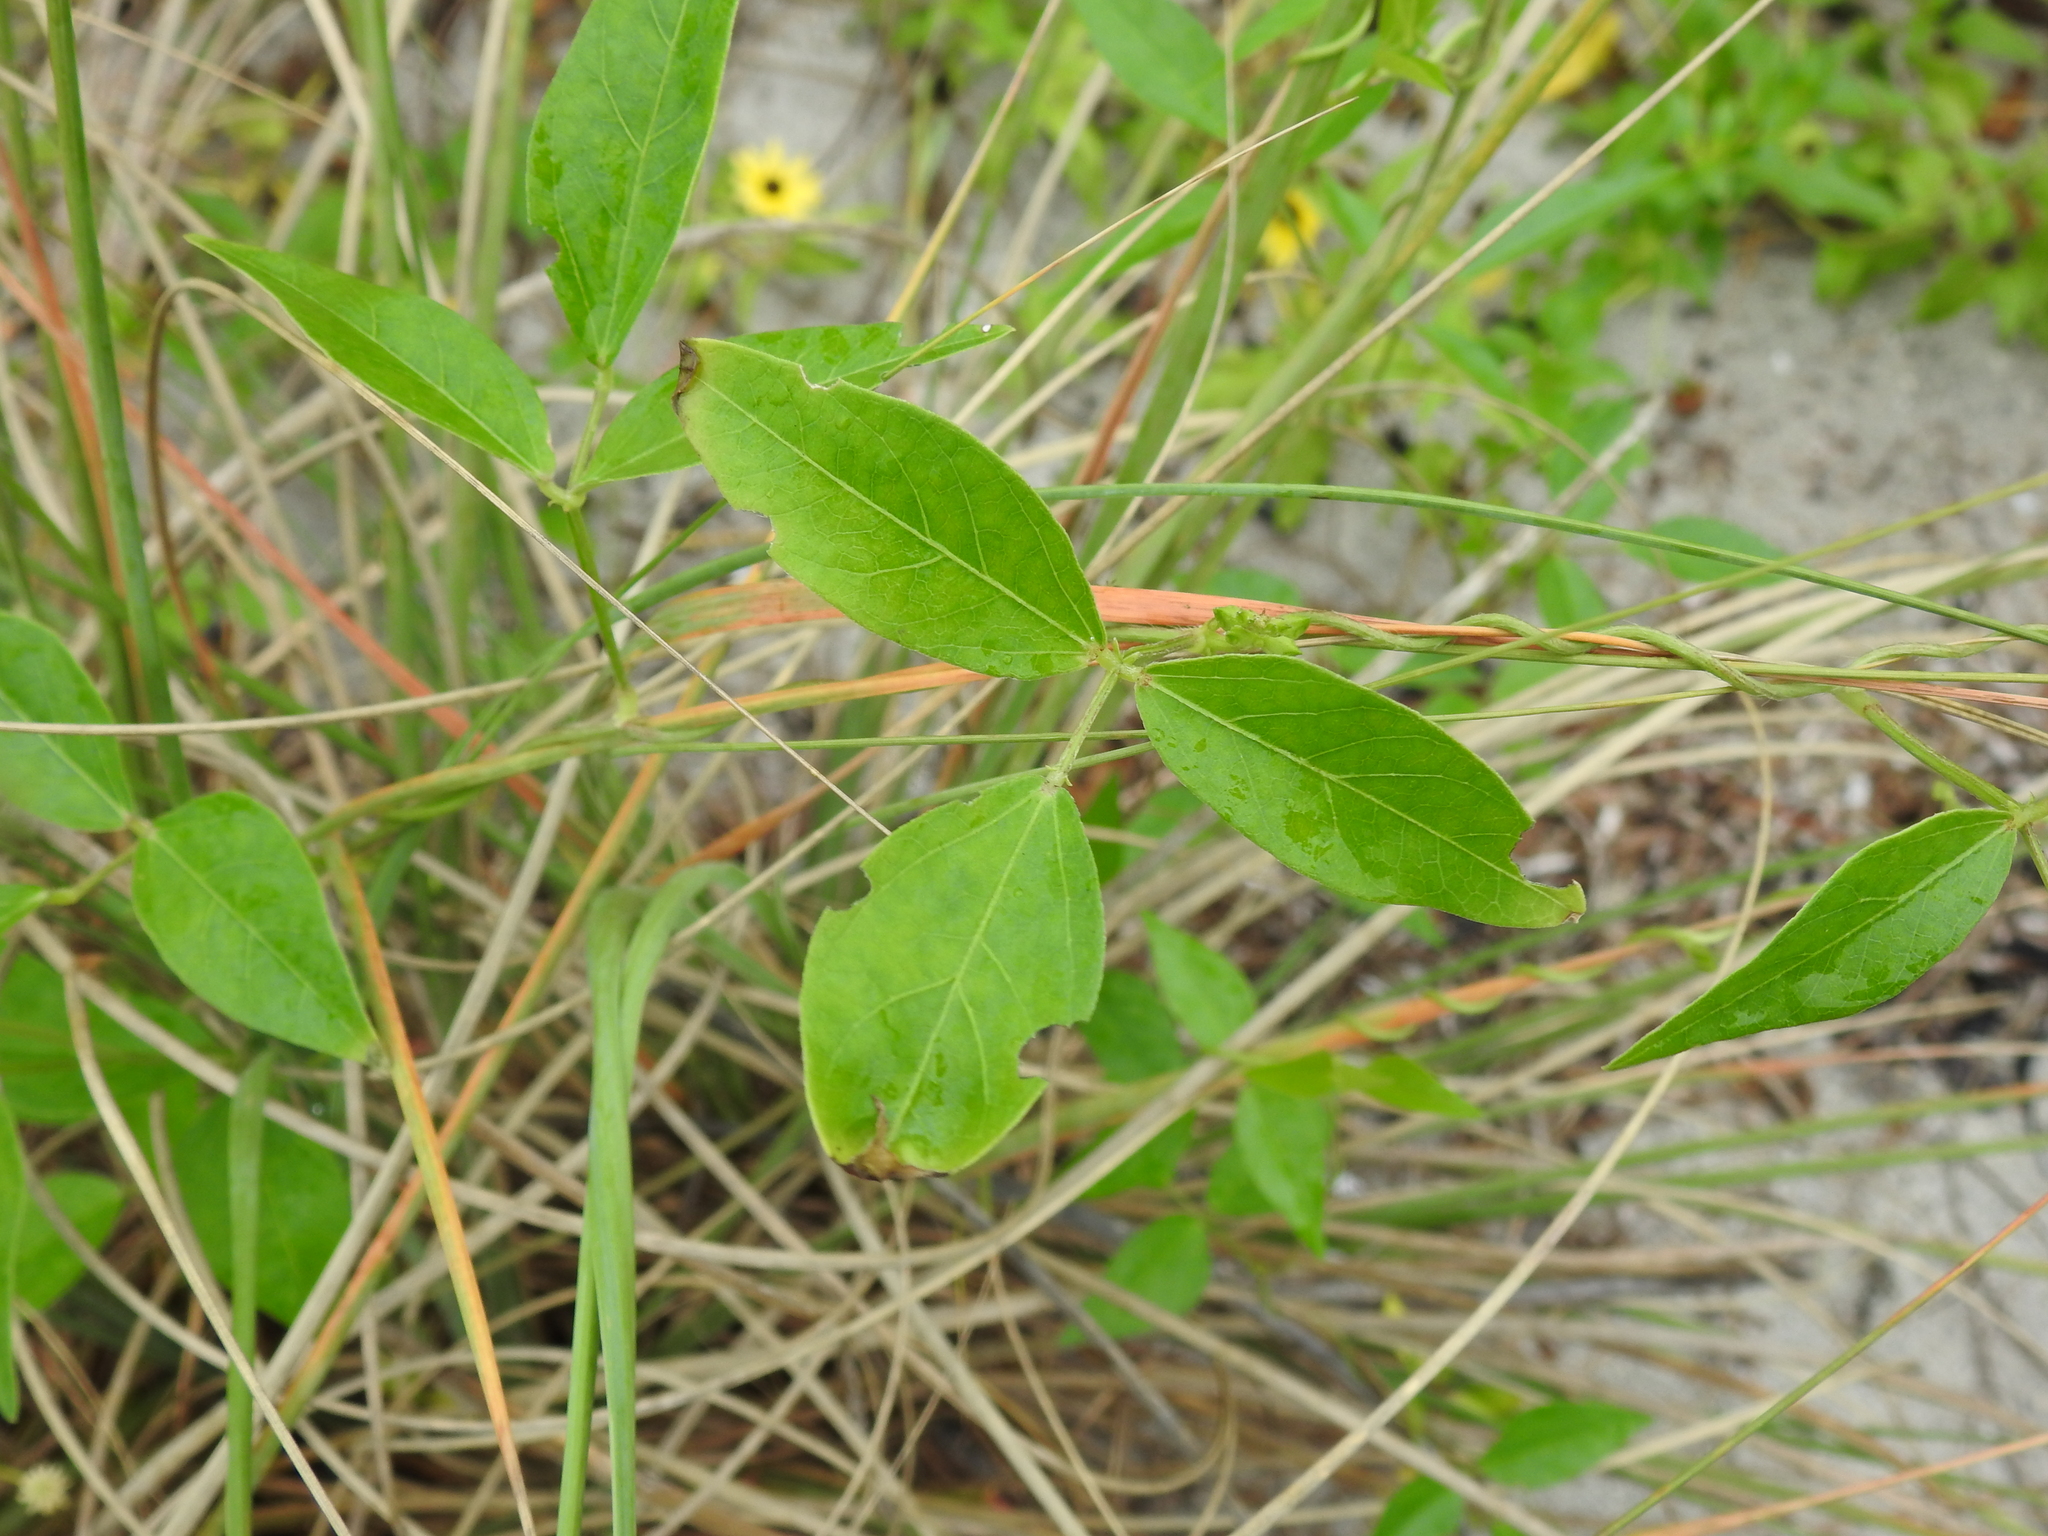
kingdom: Plantae
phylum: Tracheophyta
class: Magnoliopsida
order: Fabales
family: Fabaceae
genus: Vigna
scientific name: Vigna luteola
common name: Hairypod cowpea
